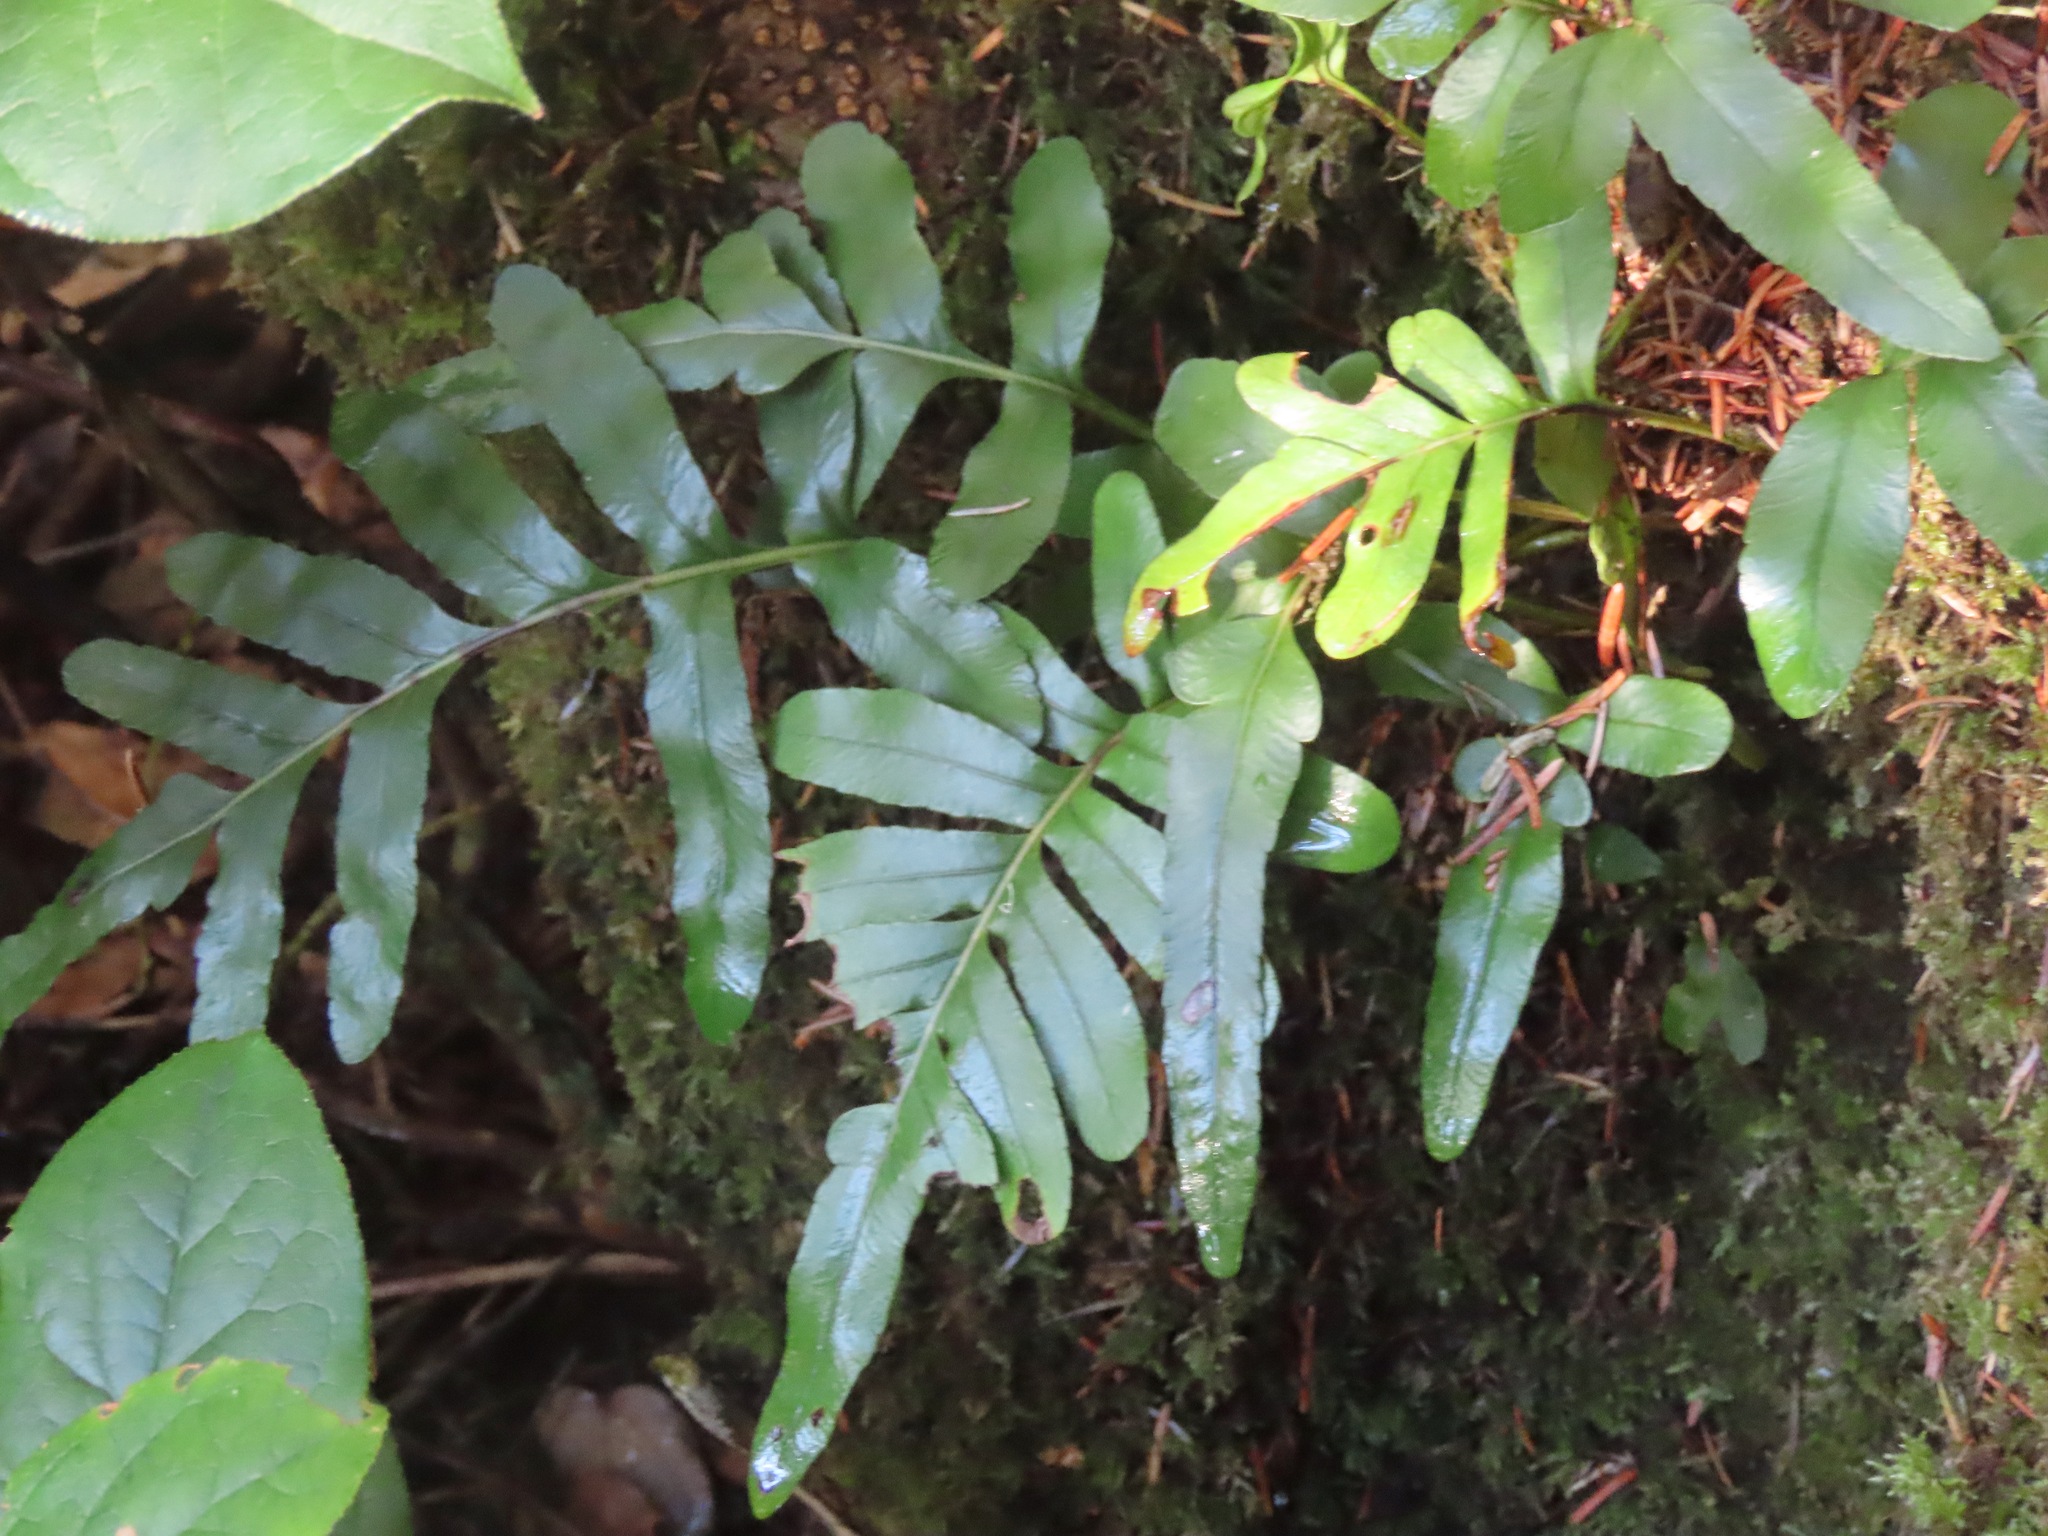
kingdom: Plantae
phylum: Tracheophyta
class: Polypodiopsida
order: Polypodiales
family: Polypodiaceae
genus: Polypodium
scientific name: Polypodium scouleri
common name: Scouler's polypody
